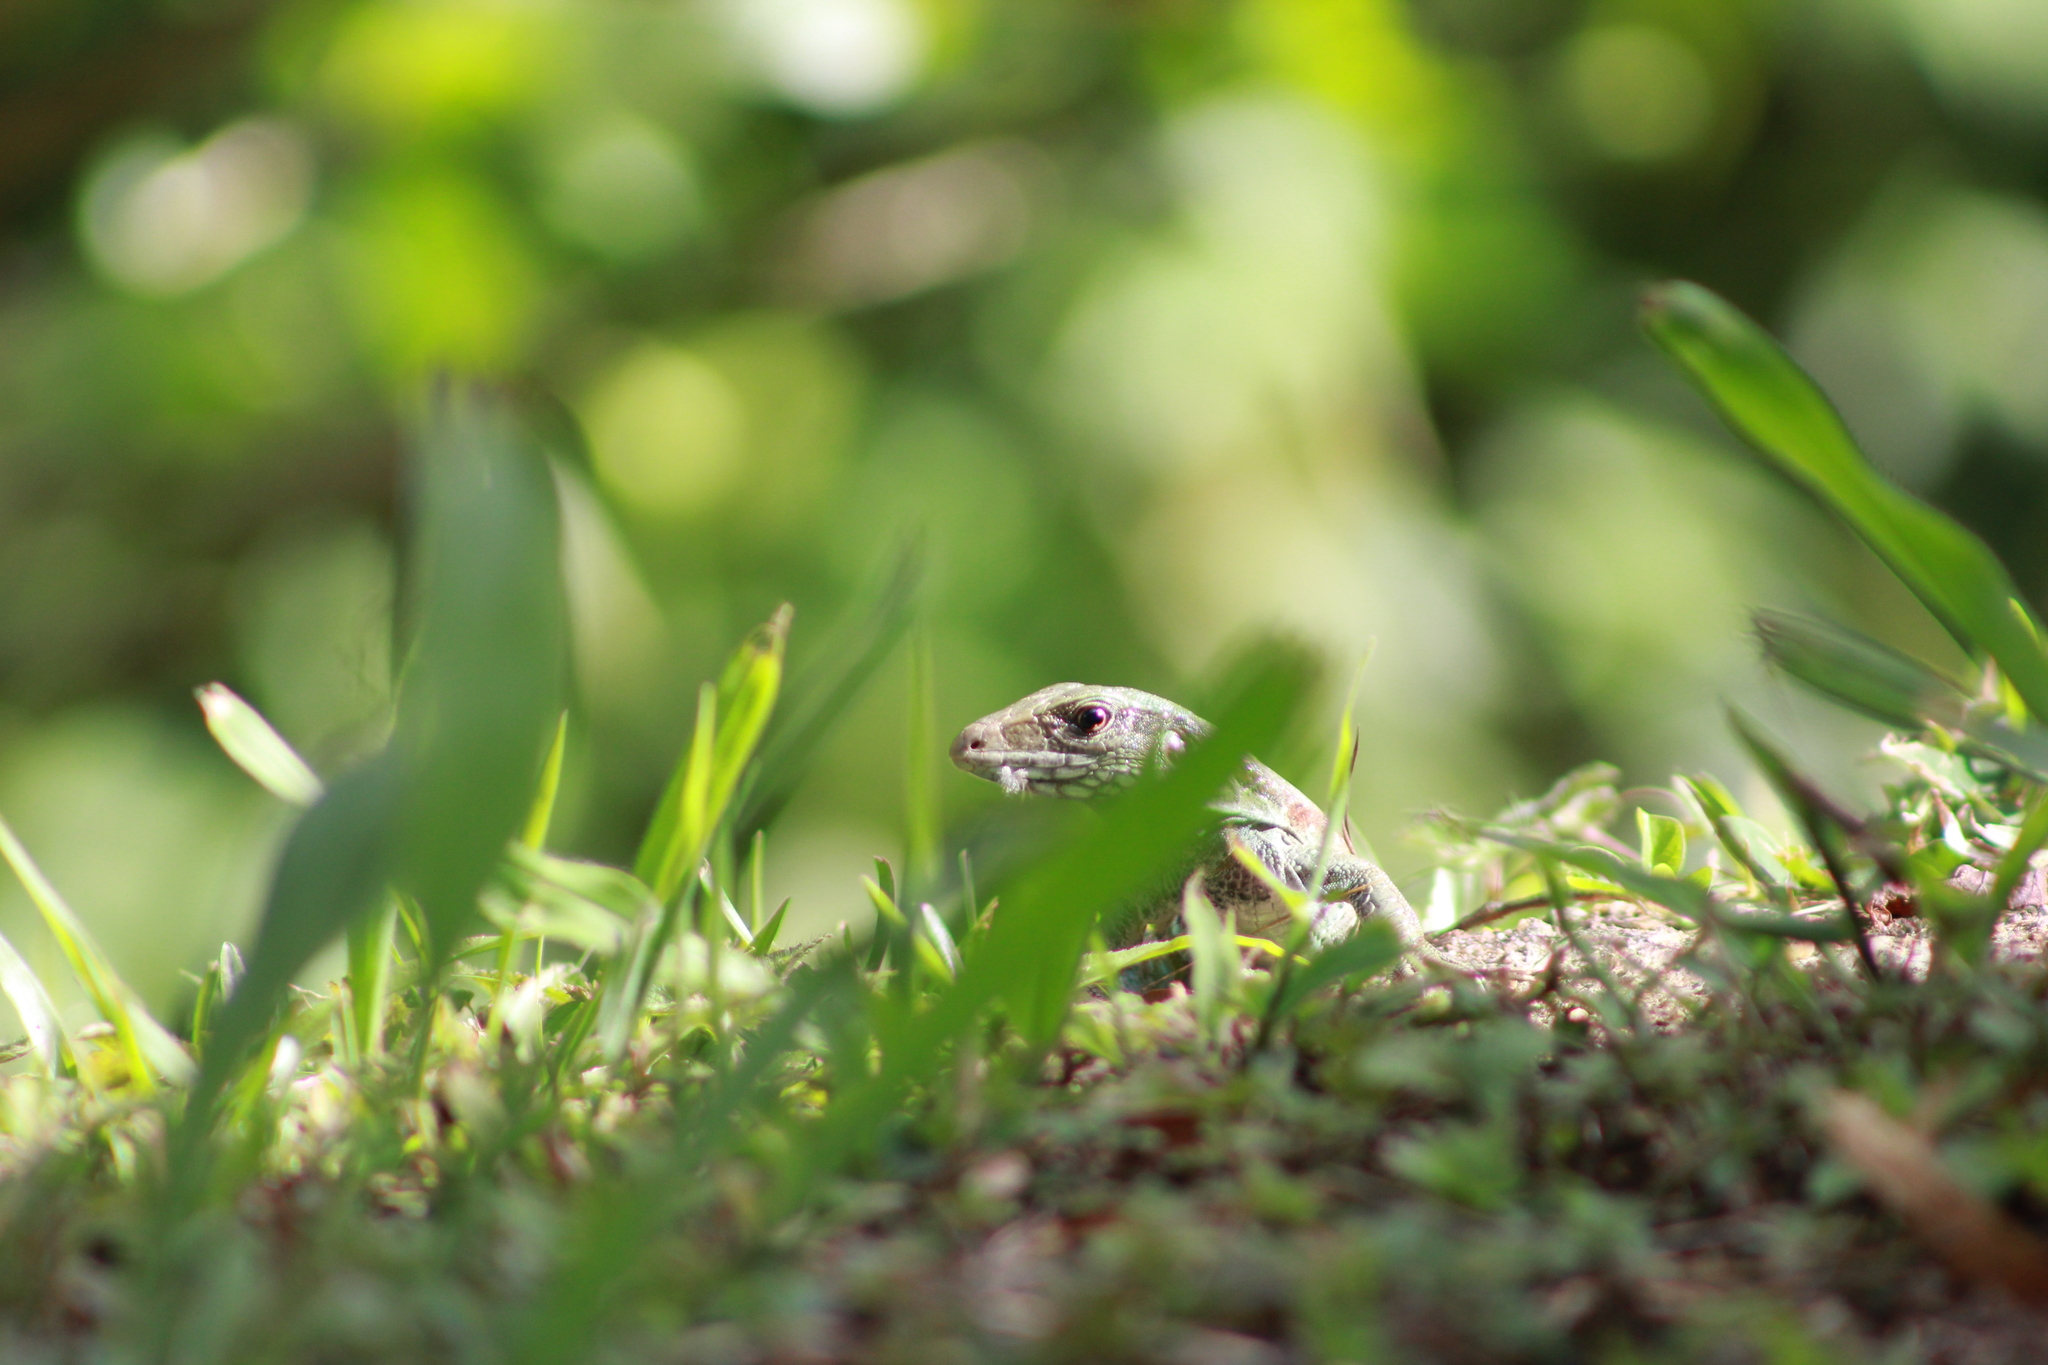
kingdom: Animalia
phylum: Chordata
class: Squamata
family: Teiidae
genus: Ameiva
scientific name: Ameiva atrigularis
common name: Venezuelan ameiva
